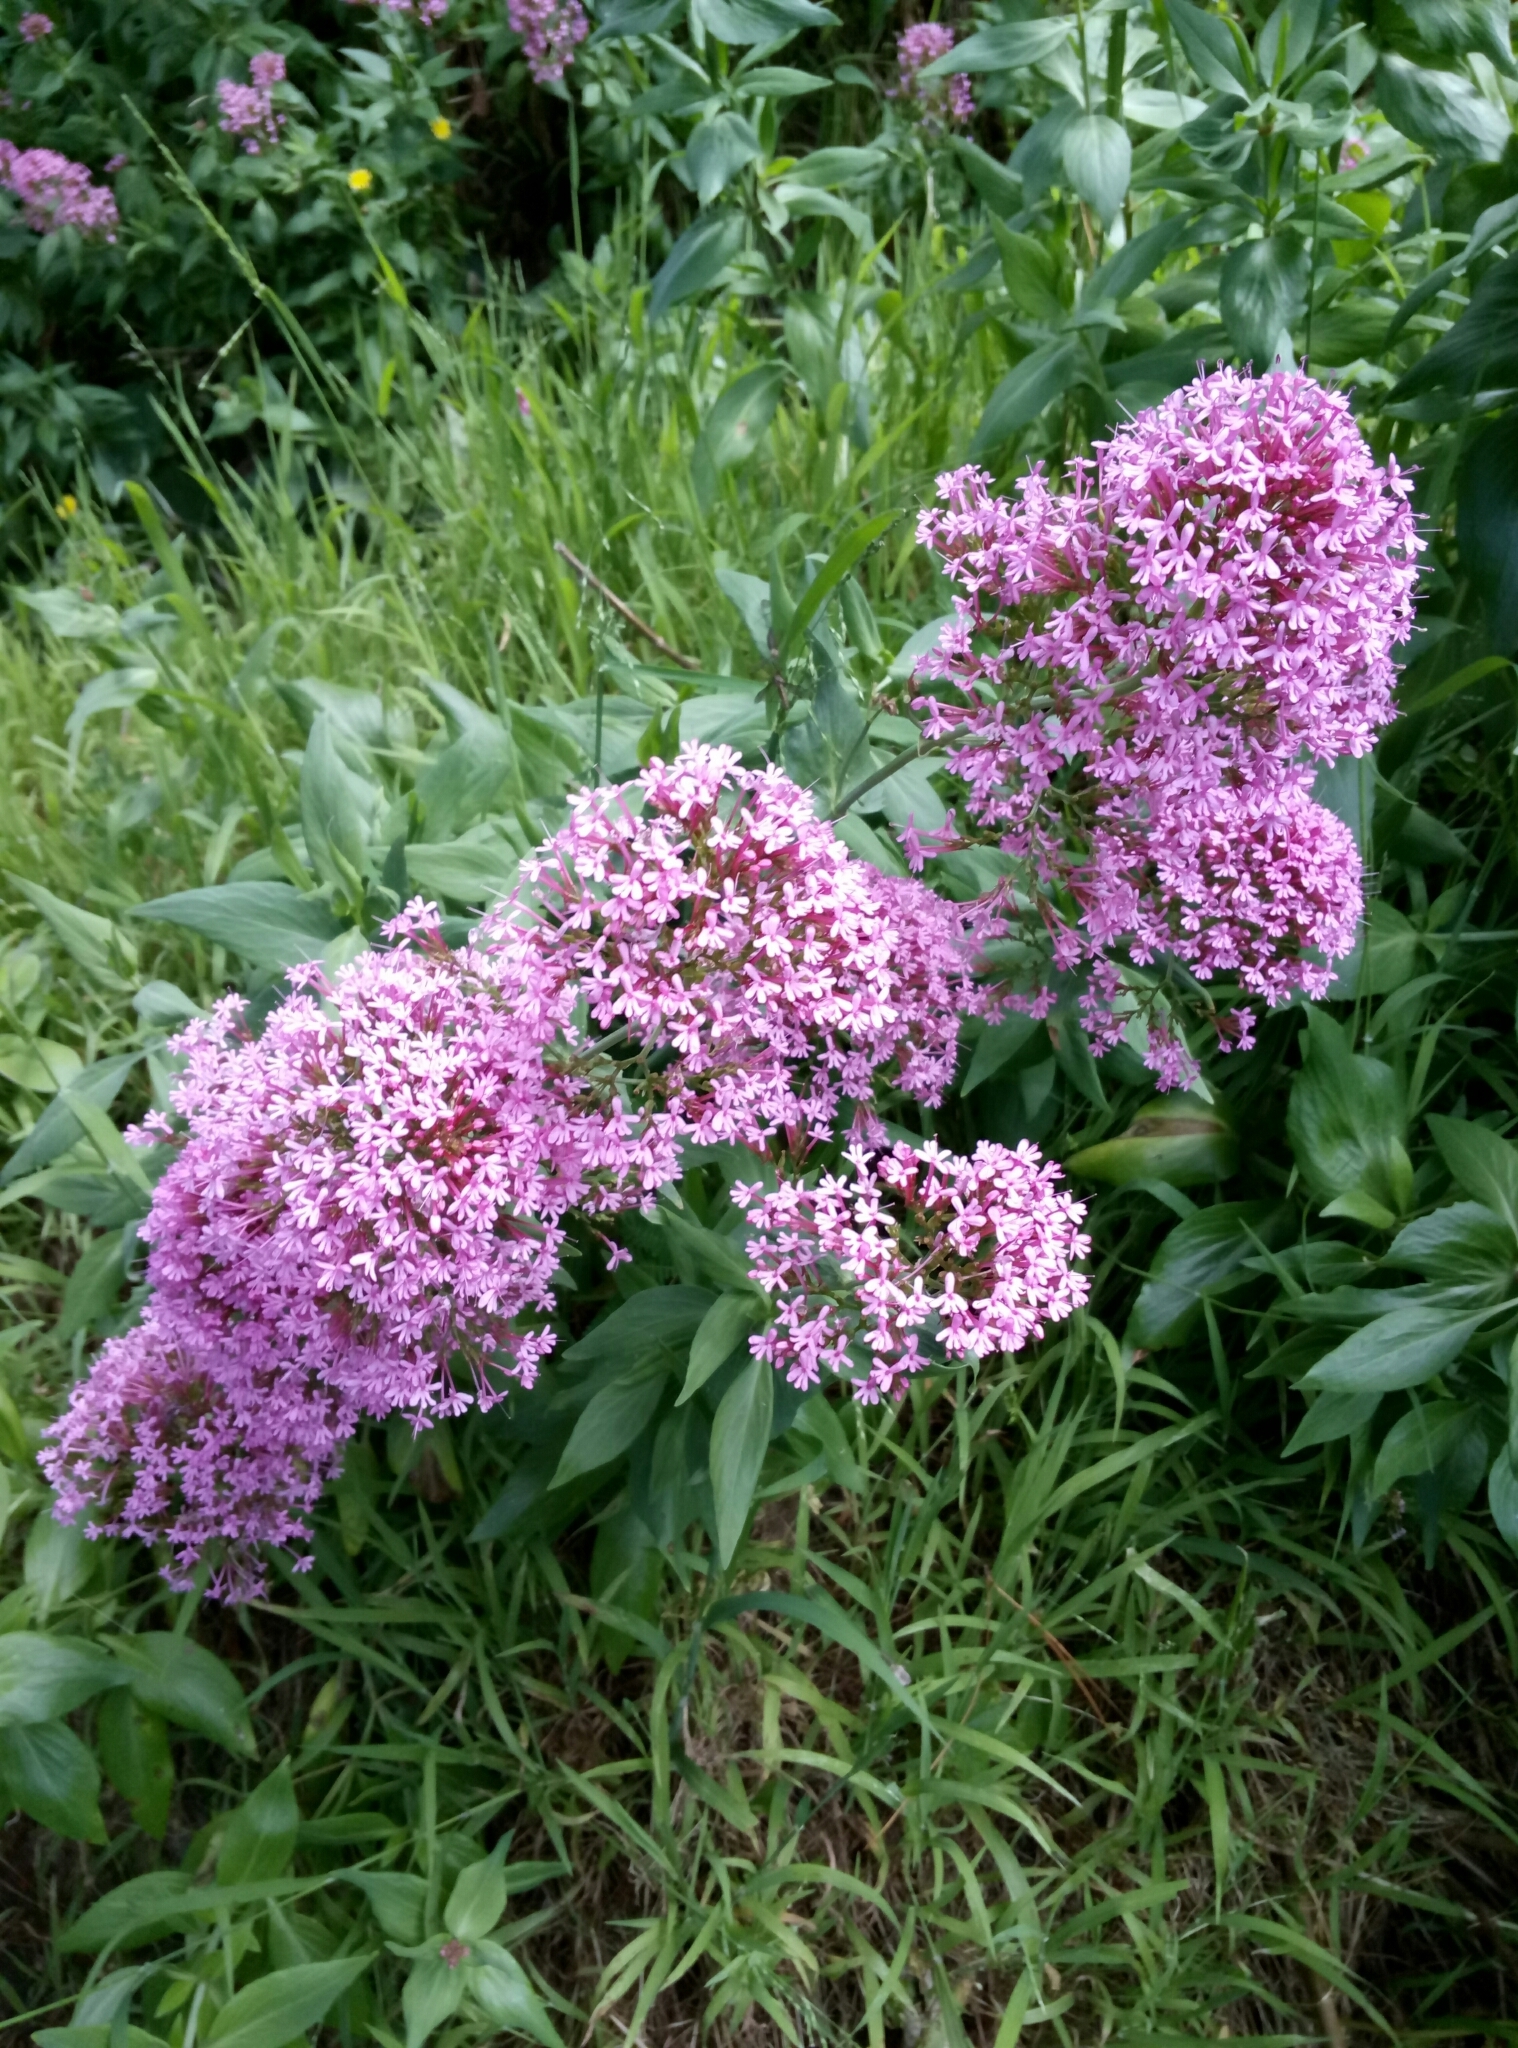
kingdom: Plantae
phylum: Tracheophyta
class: Magnoliopsida
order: Dipsacales
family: Caprifoliaceae
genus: Centranthus
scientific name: Centranthus ruber
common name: Red valerian
